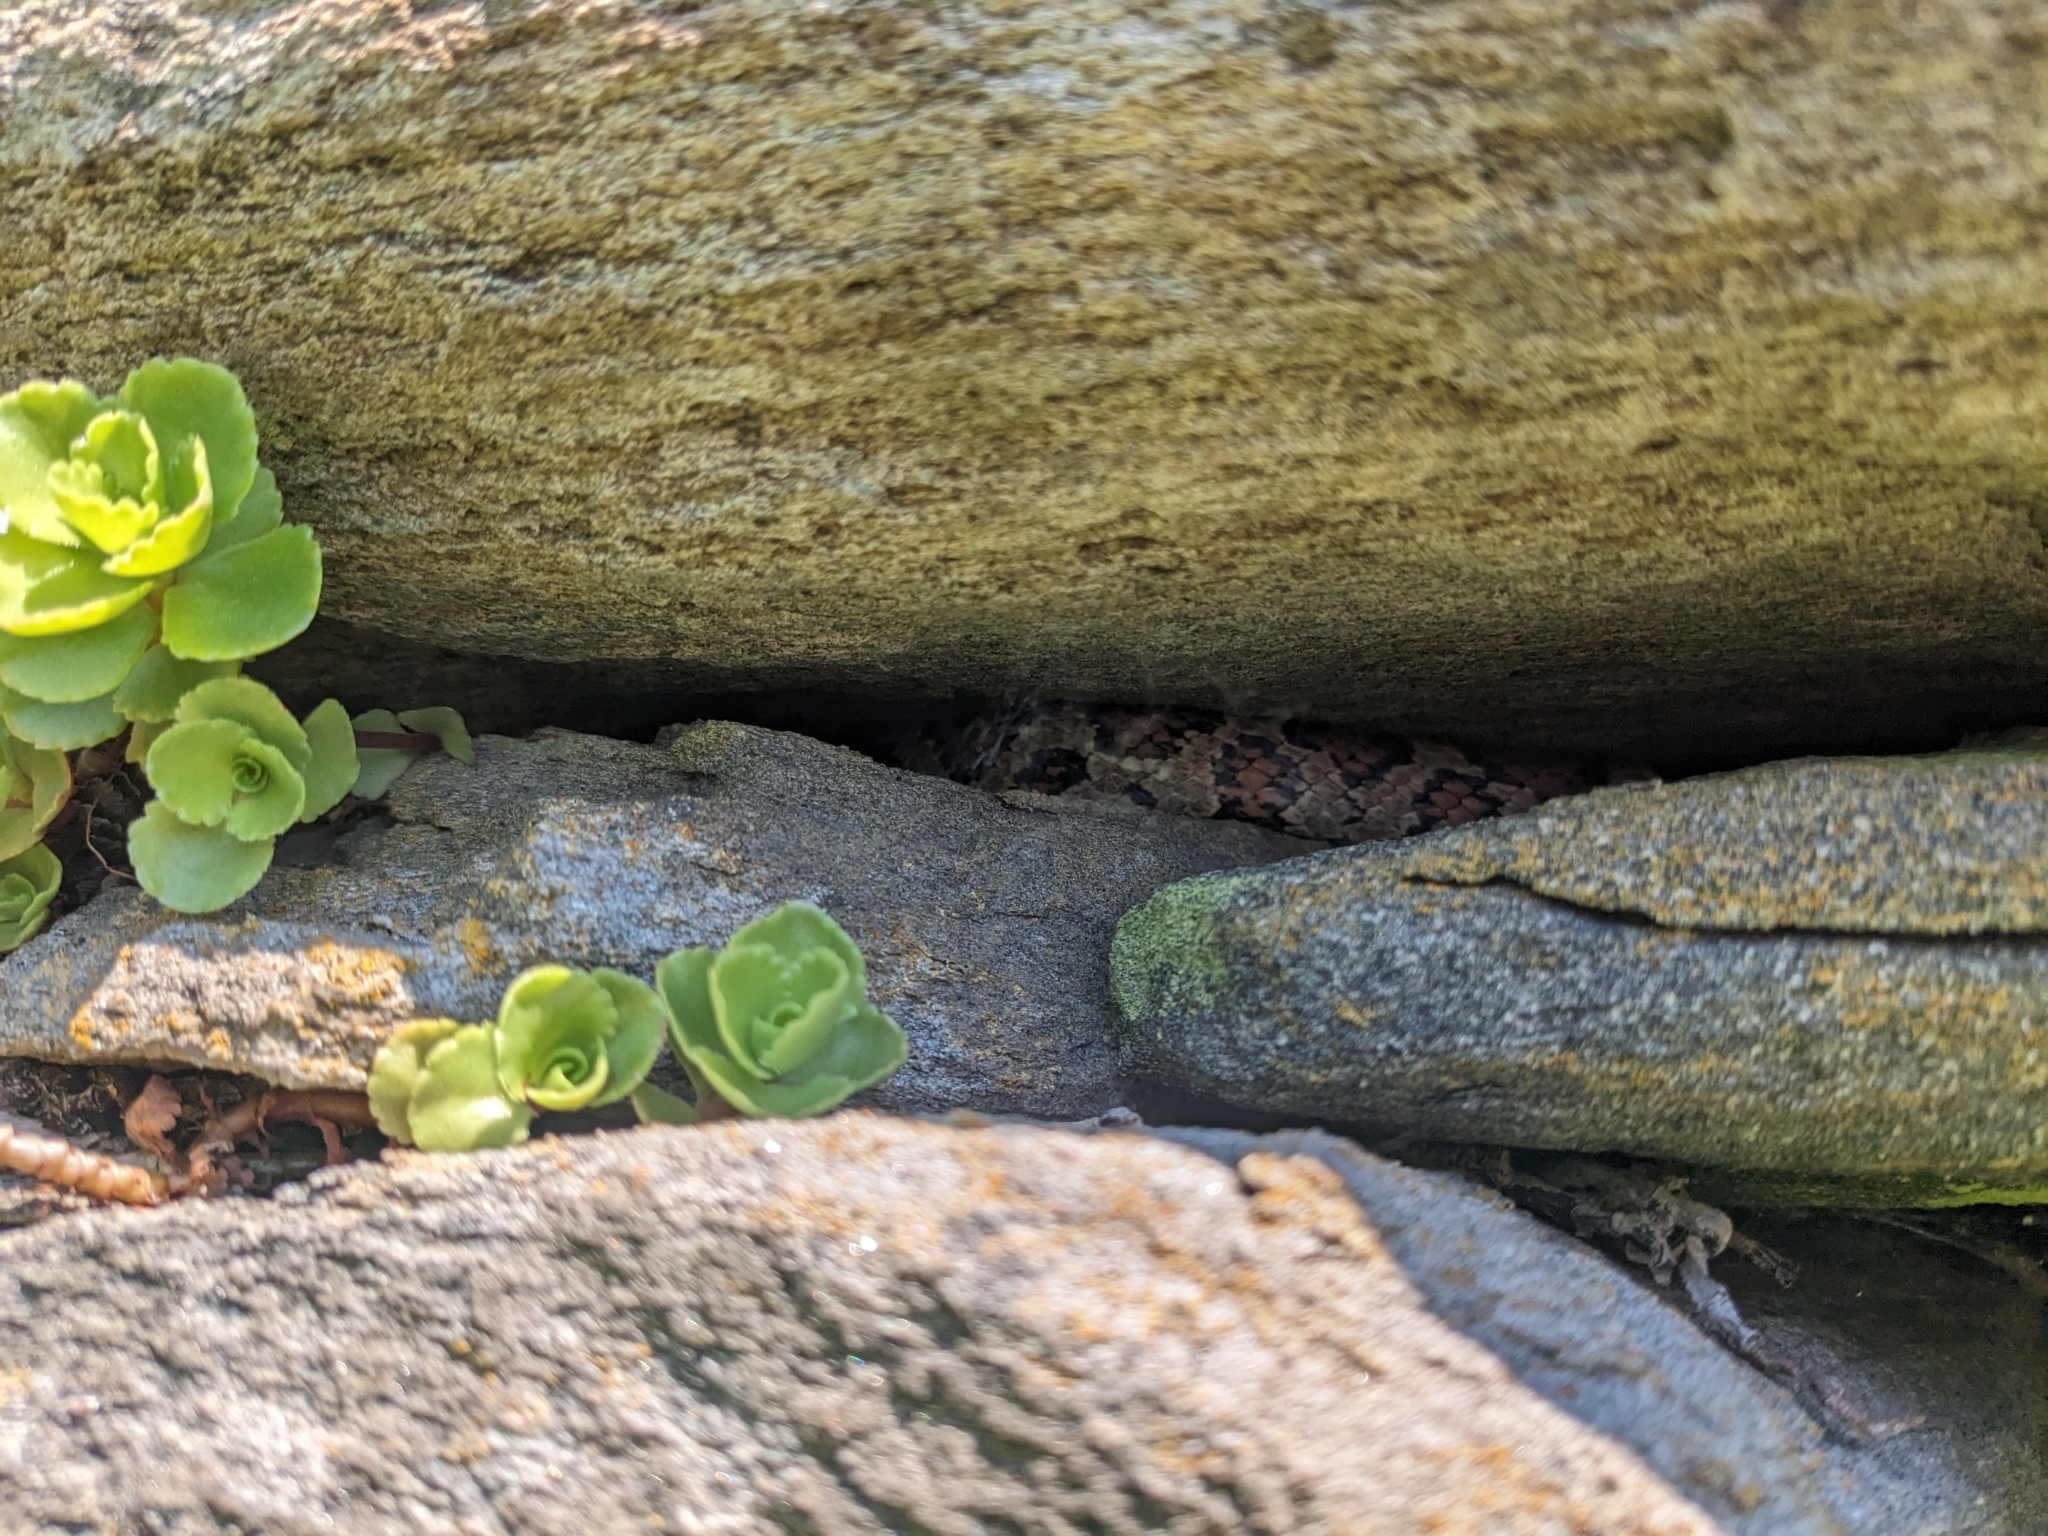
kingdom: Animalia
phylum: Chordata
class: Squamata
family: Colubridae
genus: Lampropeltis
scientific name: Lampropeltis triangulum
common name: Eastern milksnake
